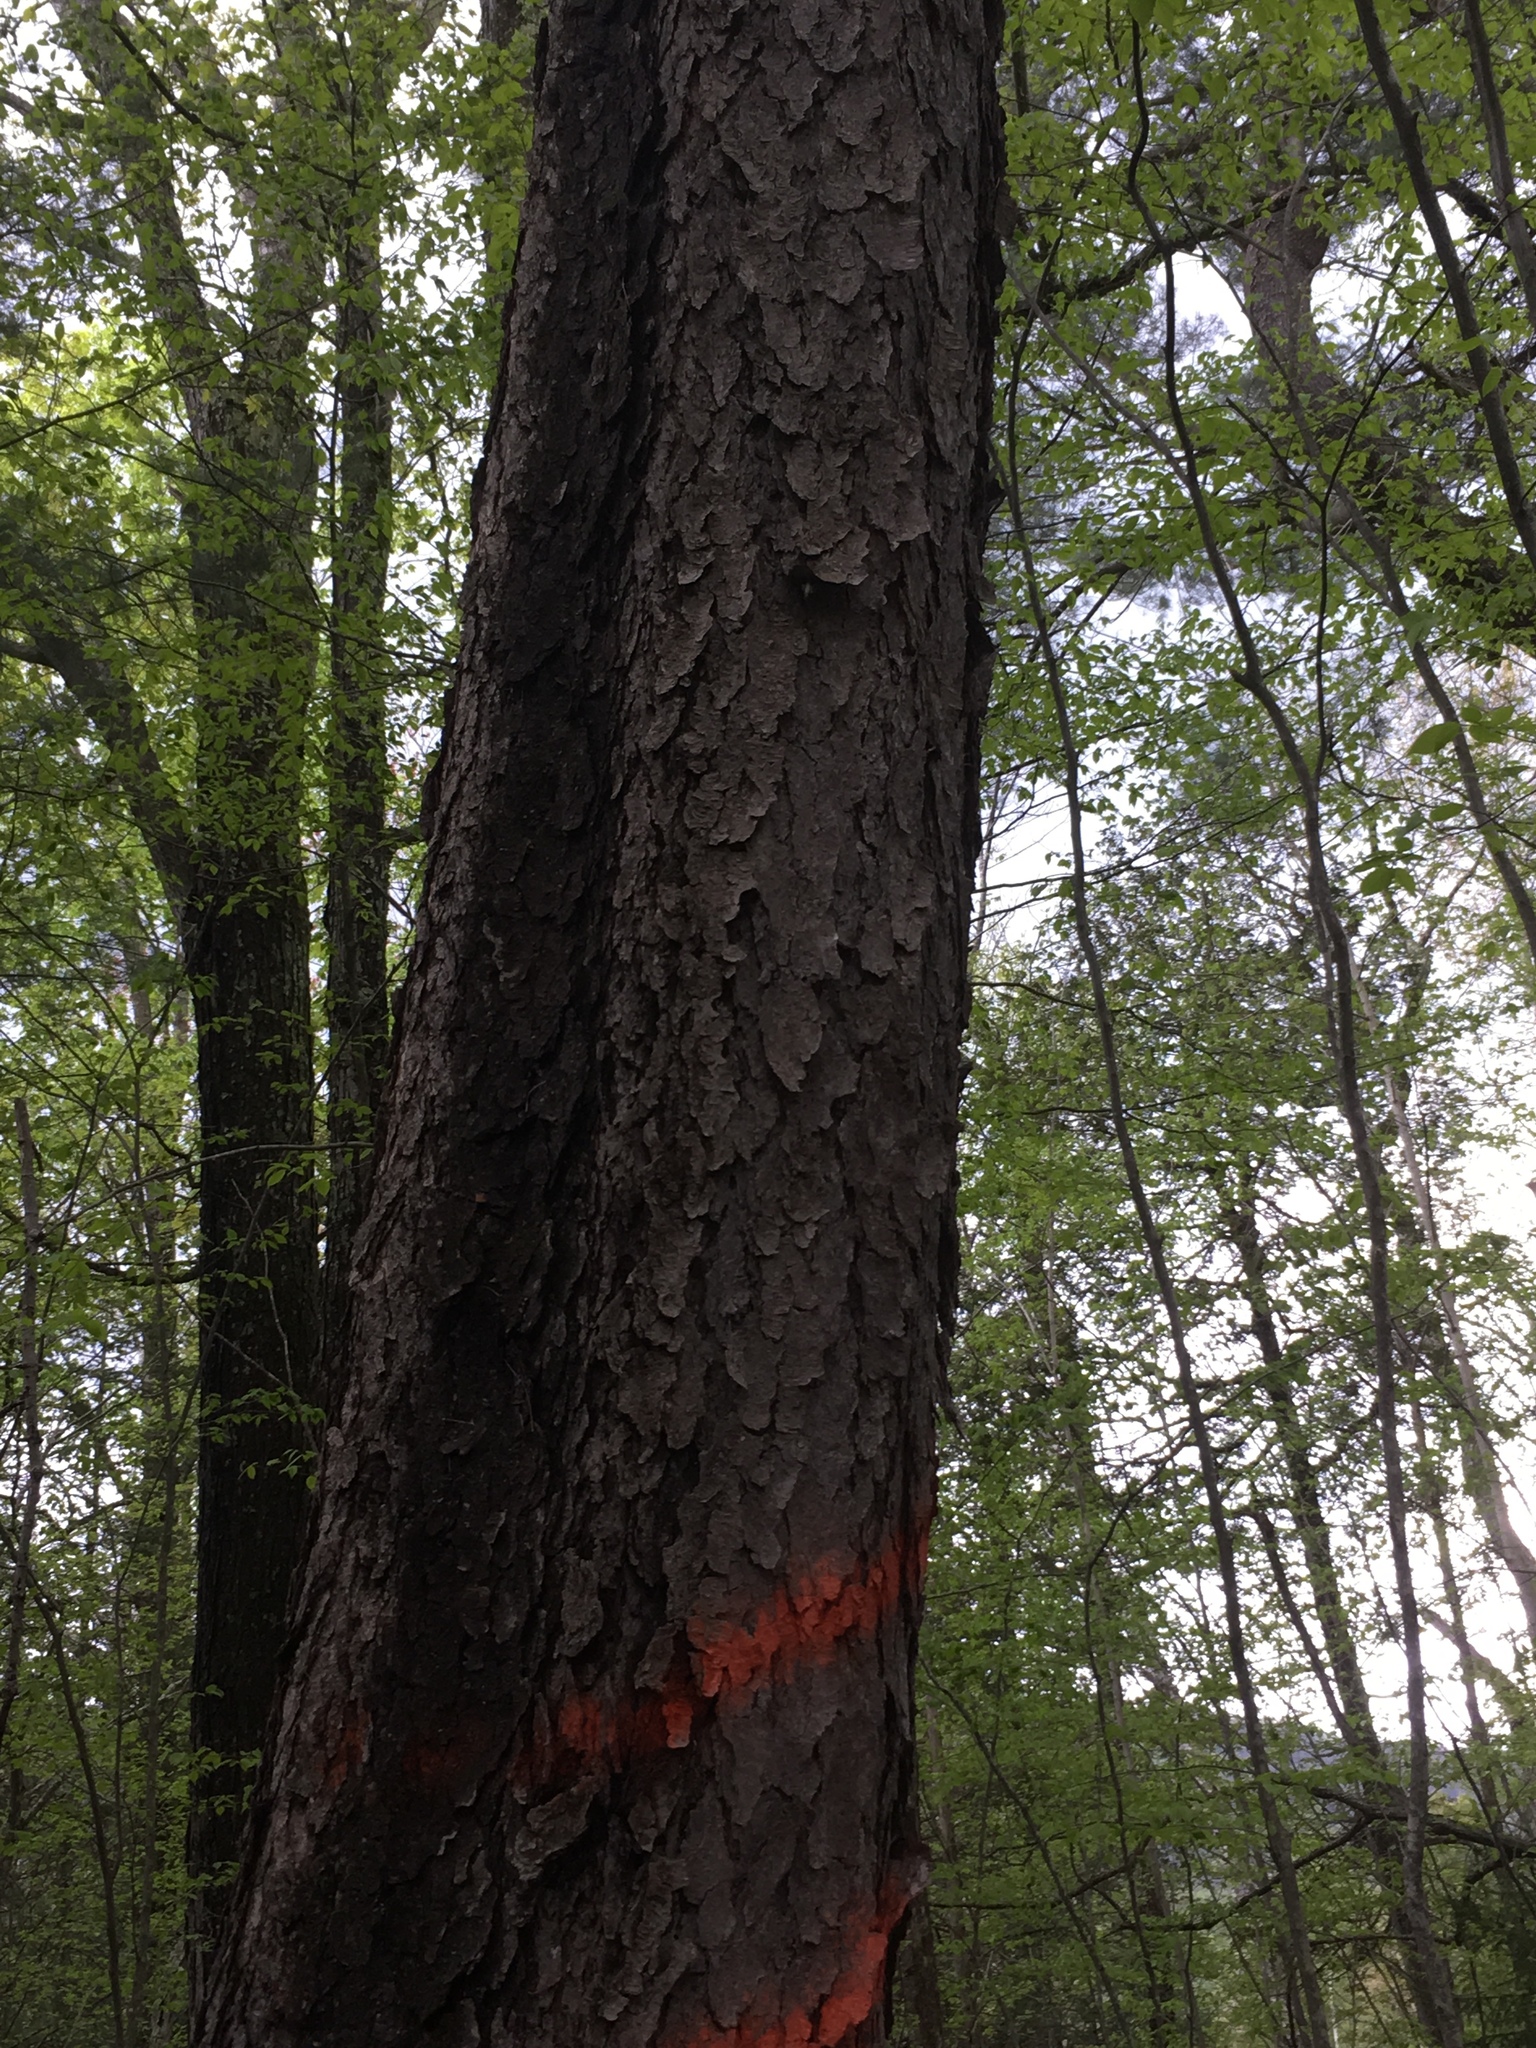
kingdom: Plantae
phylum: Tracheophyta
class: Magnoliopsida
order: Rosales
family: Rosaceae
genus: Prunus
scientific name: Prunus serotina
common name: Black cherry
